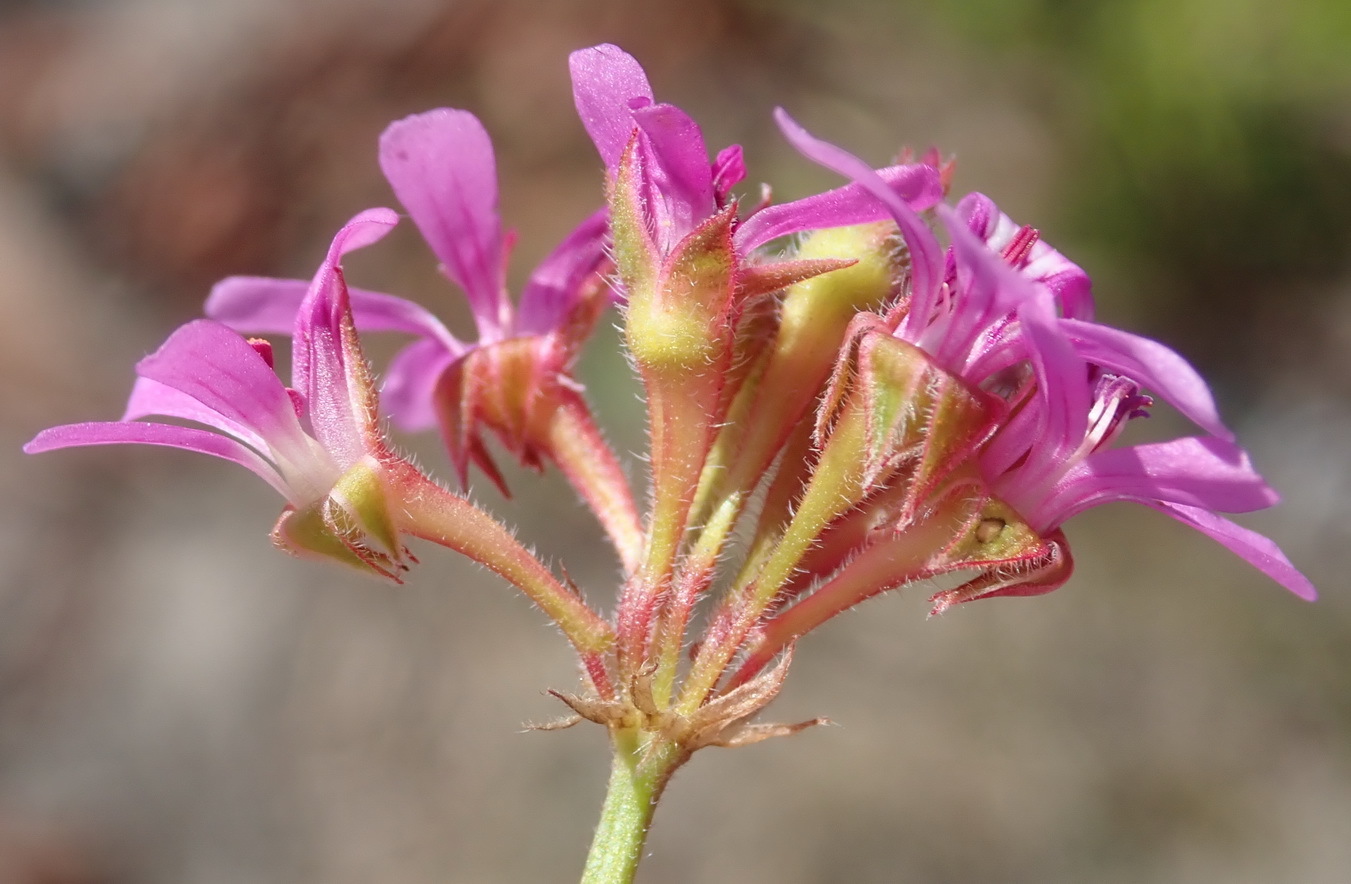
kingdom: Plantae
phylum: Tracheophyta
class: Magnoliopsida
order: Geraniales
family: Geraniaceae
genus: Pelargonium
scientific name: Pelargonium grossularioides
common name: Gooseberry geranium
